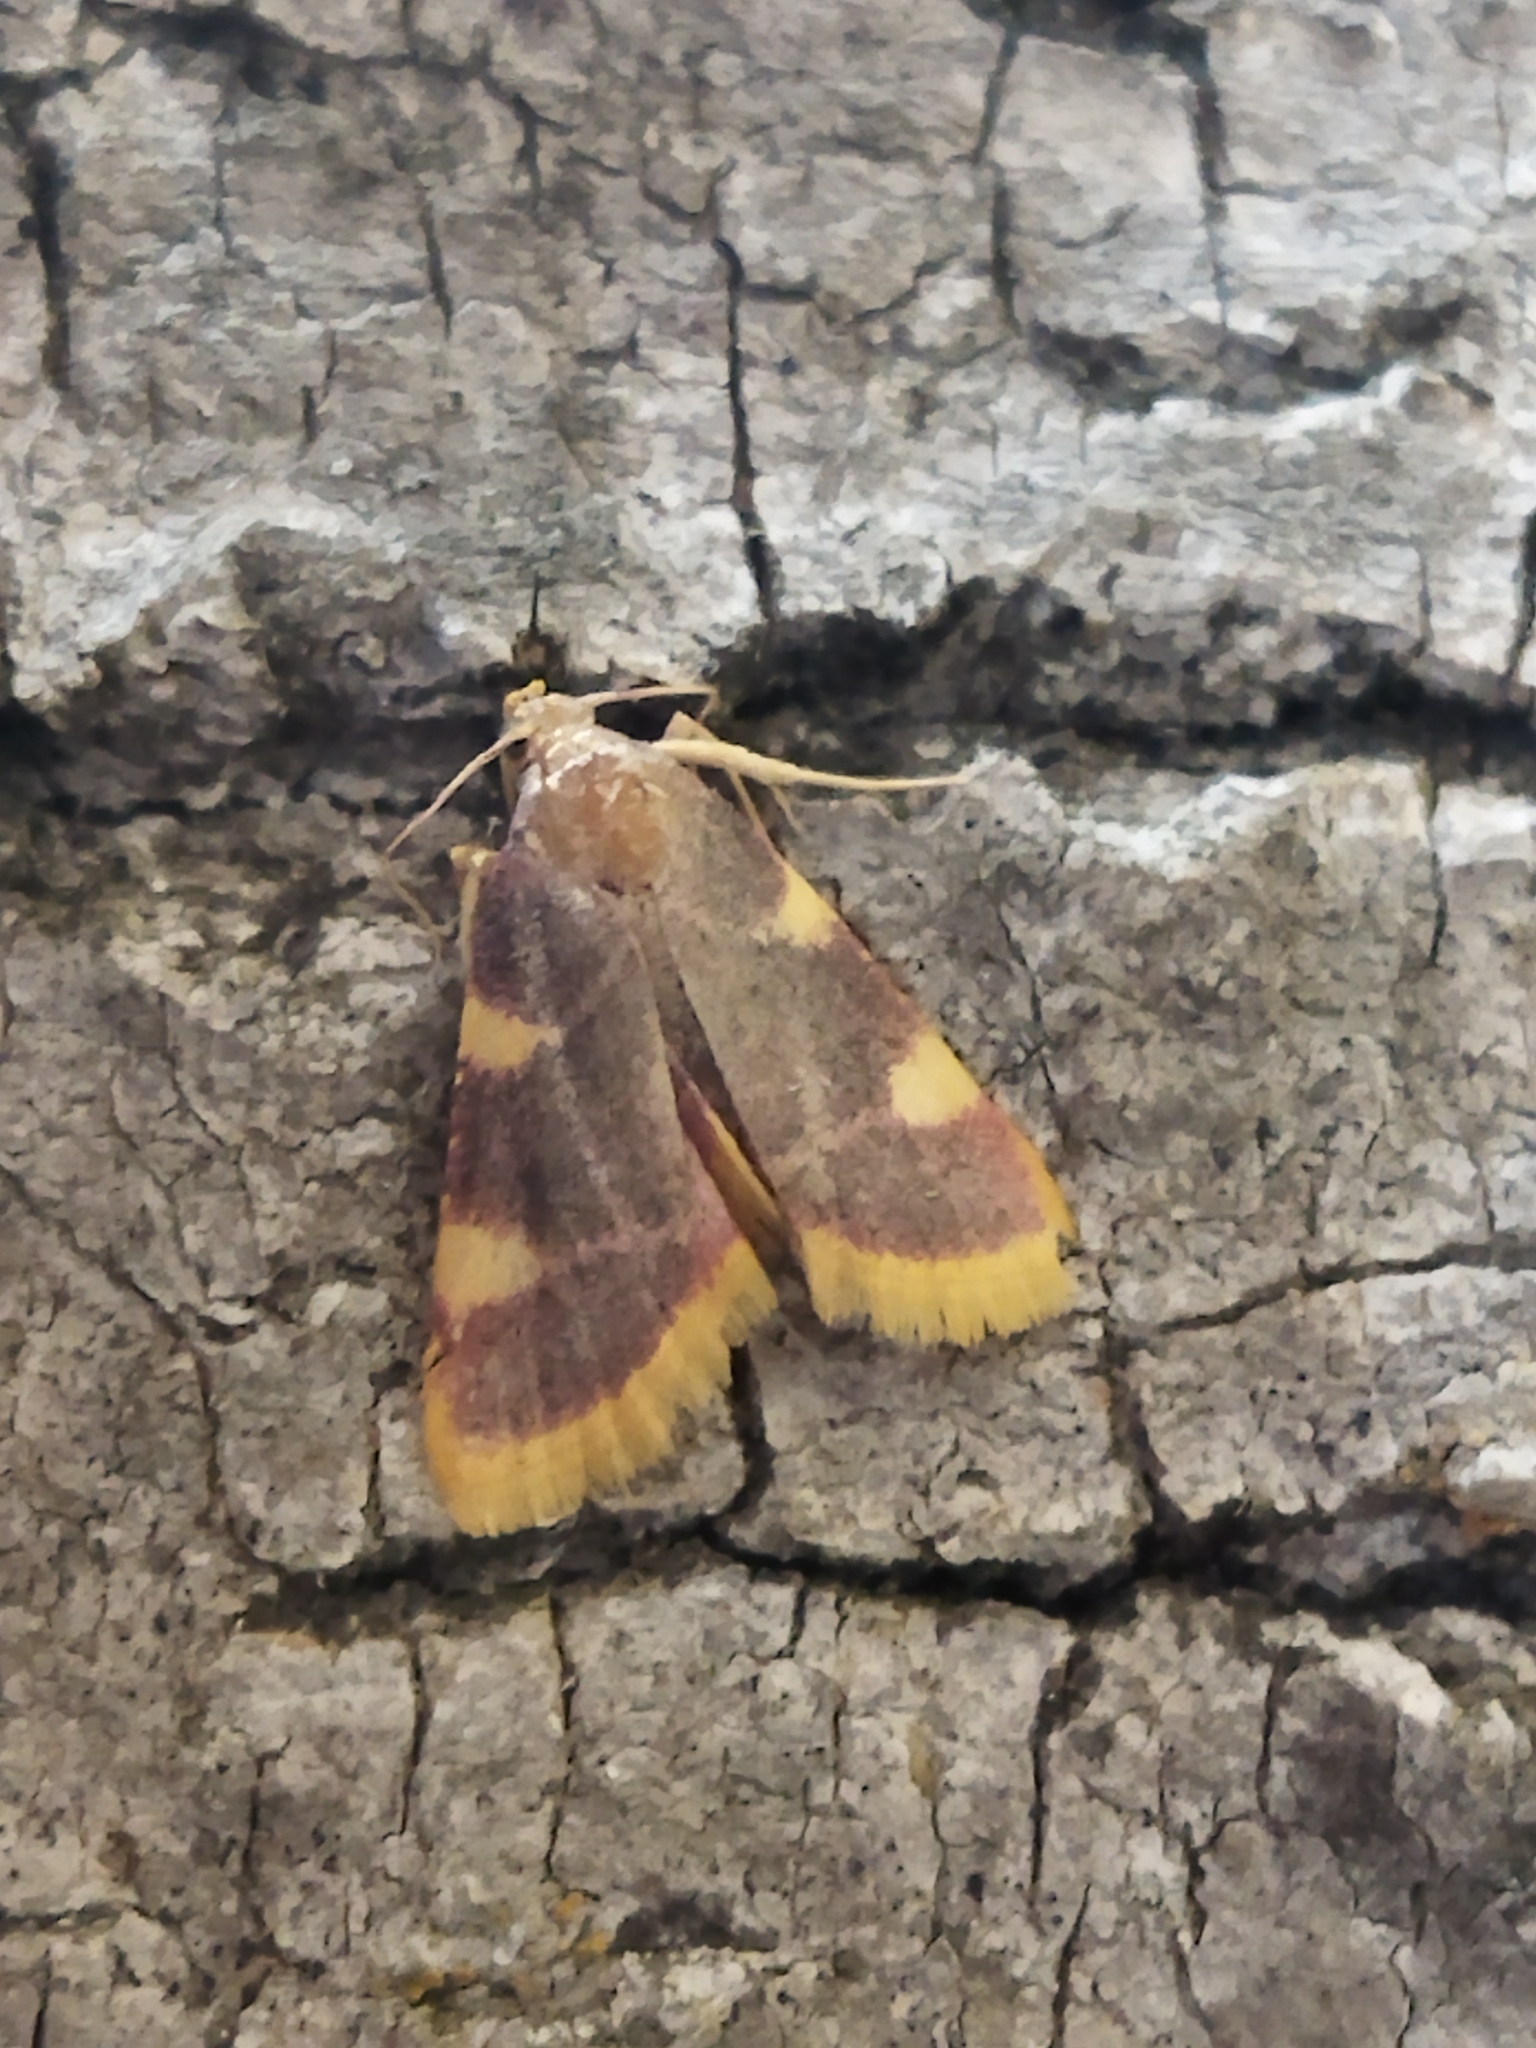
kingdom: Animalia
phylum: Arthropoda
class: Insecta
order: Lepidoptera
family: Pyralidae
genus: Hypsopygia
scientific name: Hypsopygia costalis
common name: Gold triangle
